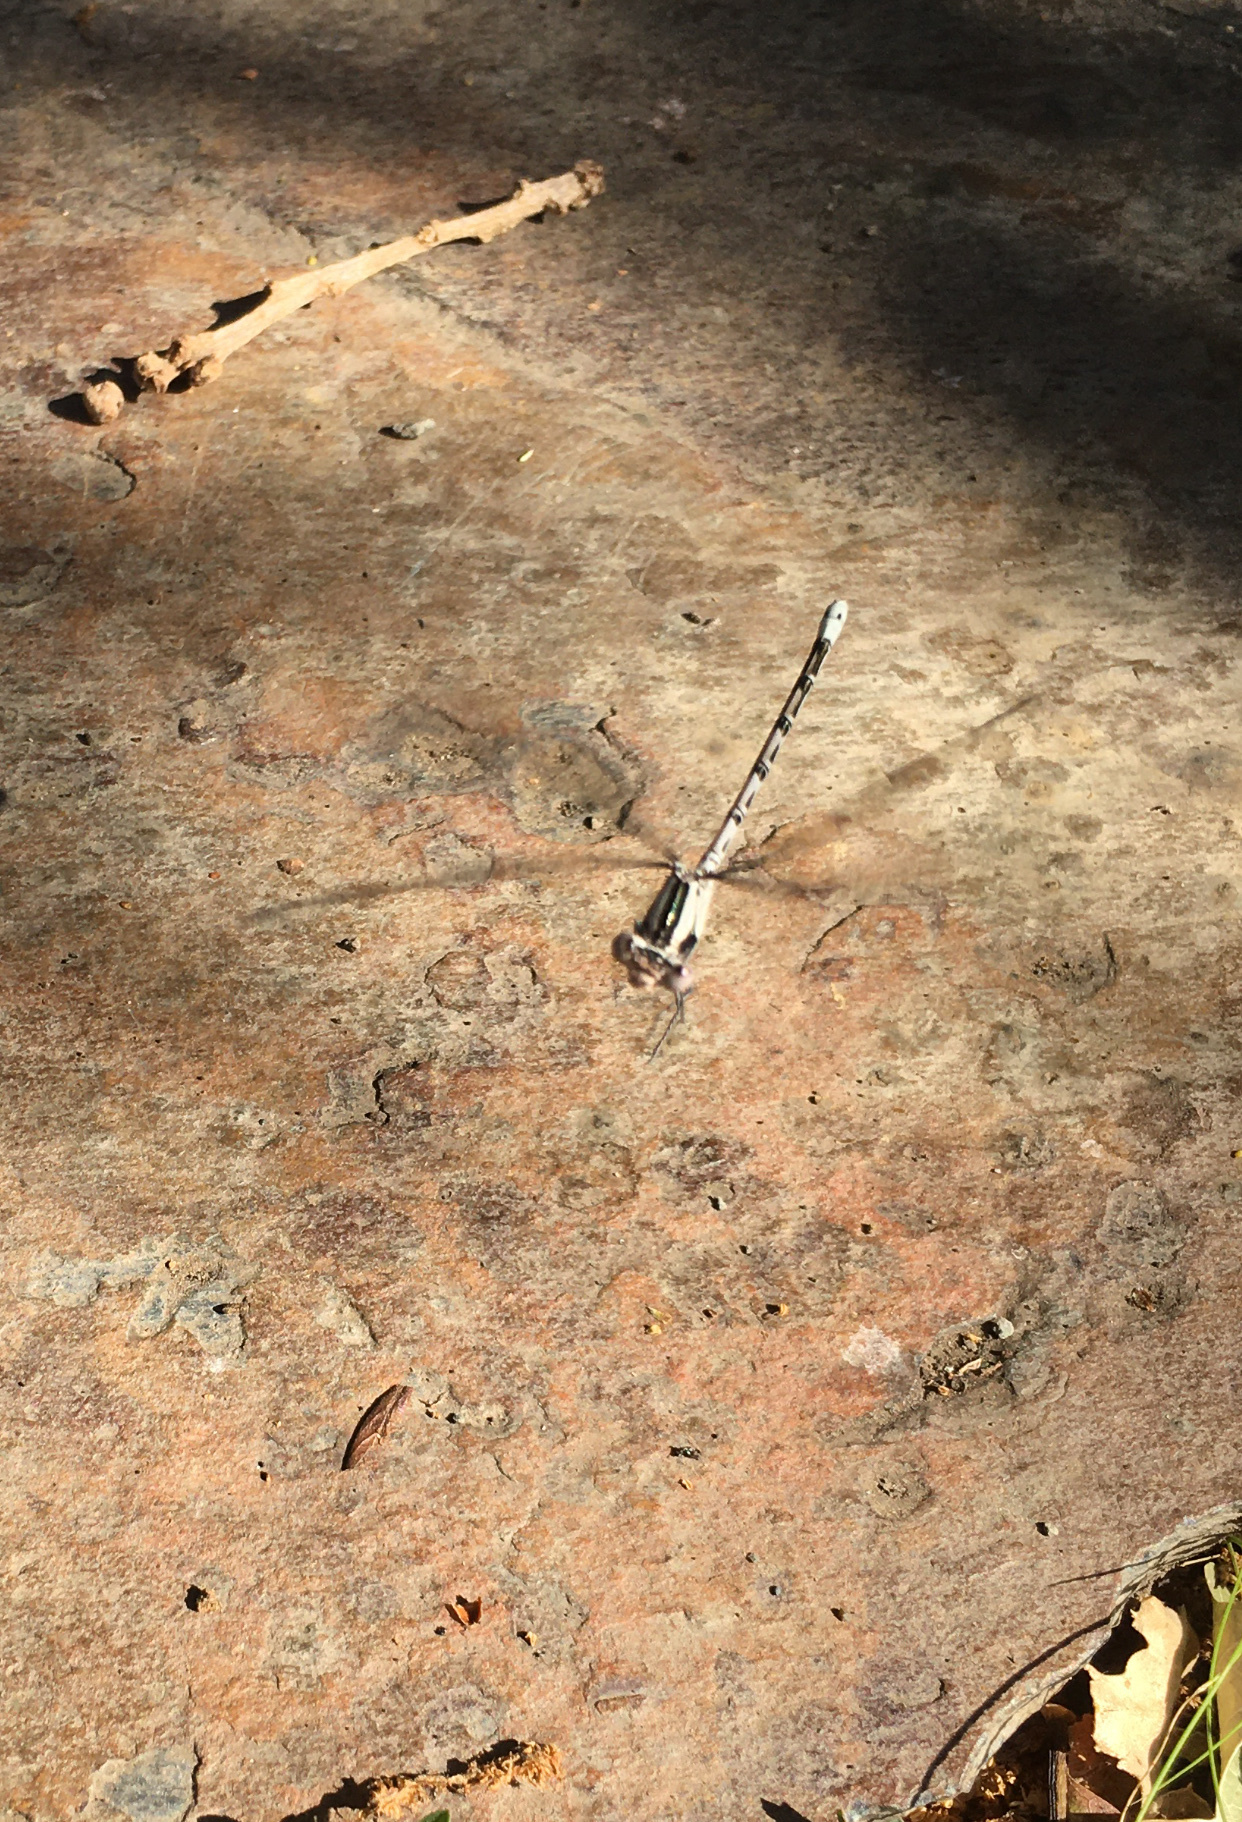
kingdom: Animalia
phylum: Arthropoda
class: Insecta
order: Odonata
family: Coenagrionidae
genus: Argia
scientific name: Argia vivida
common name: Vivid dancer
